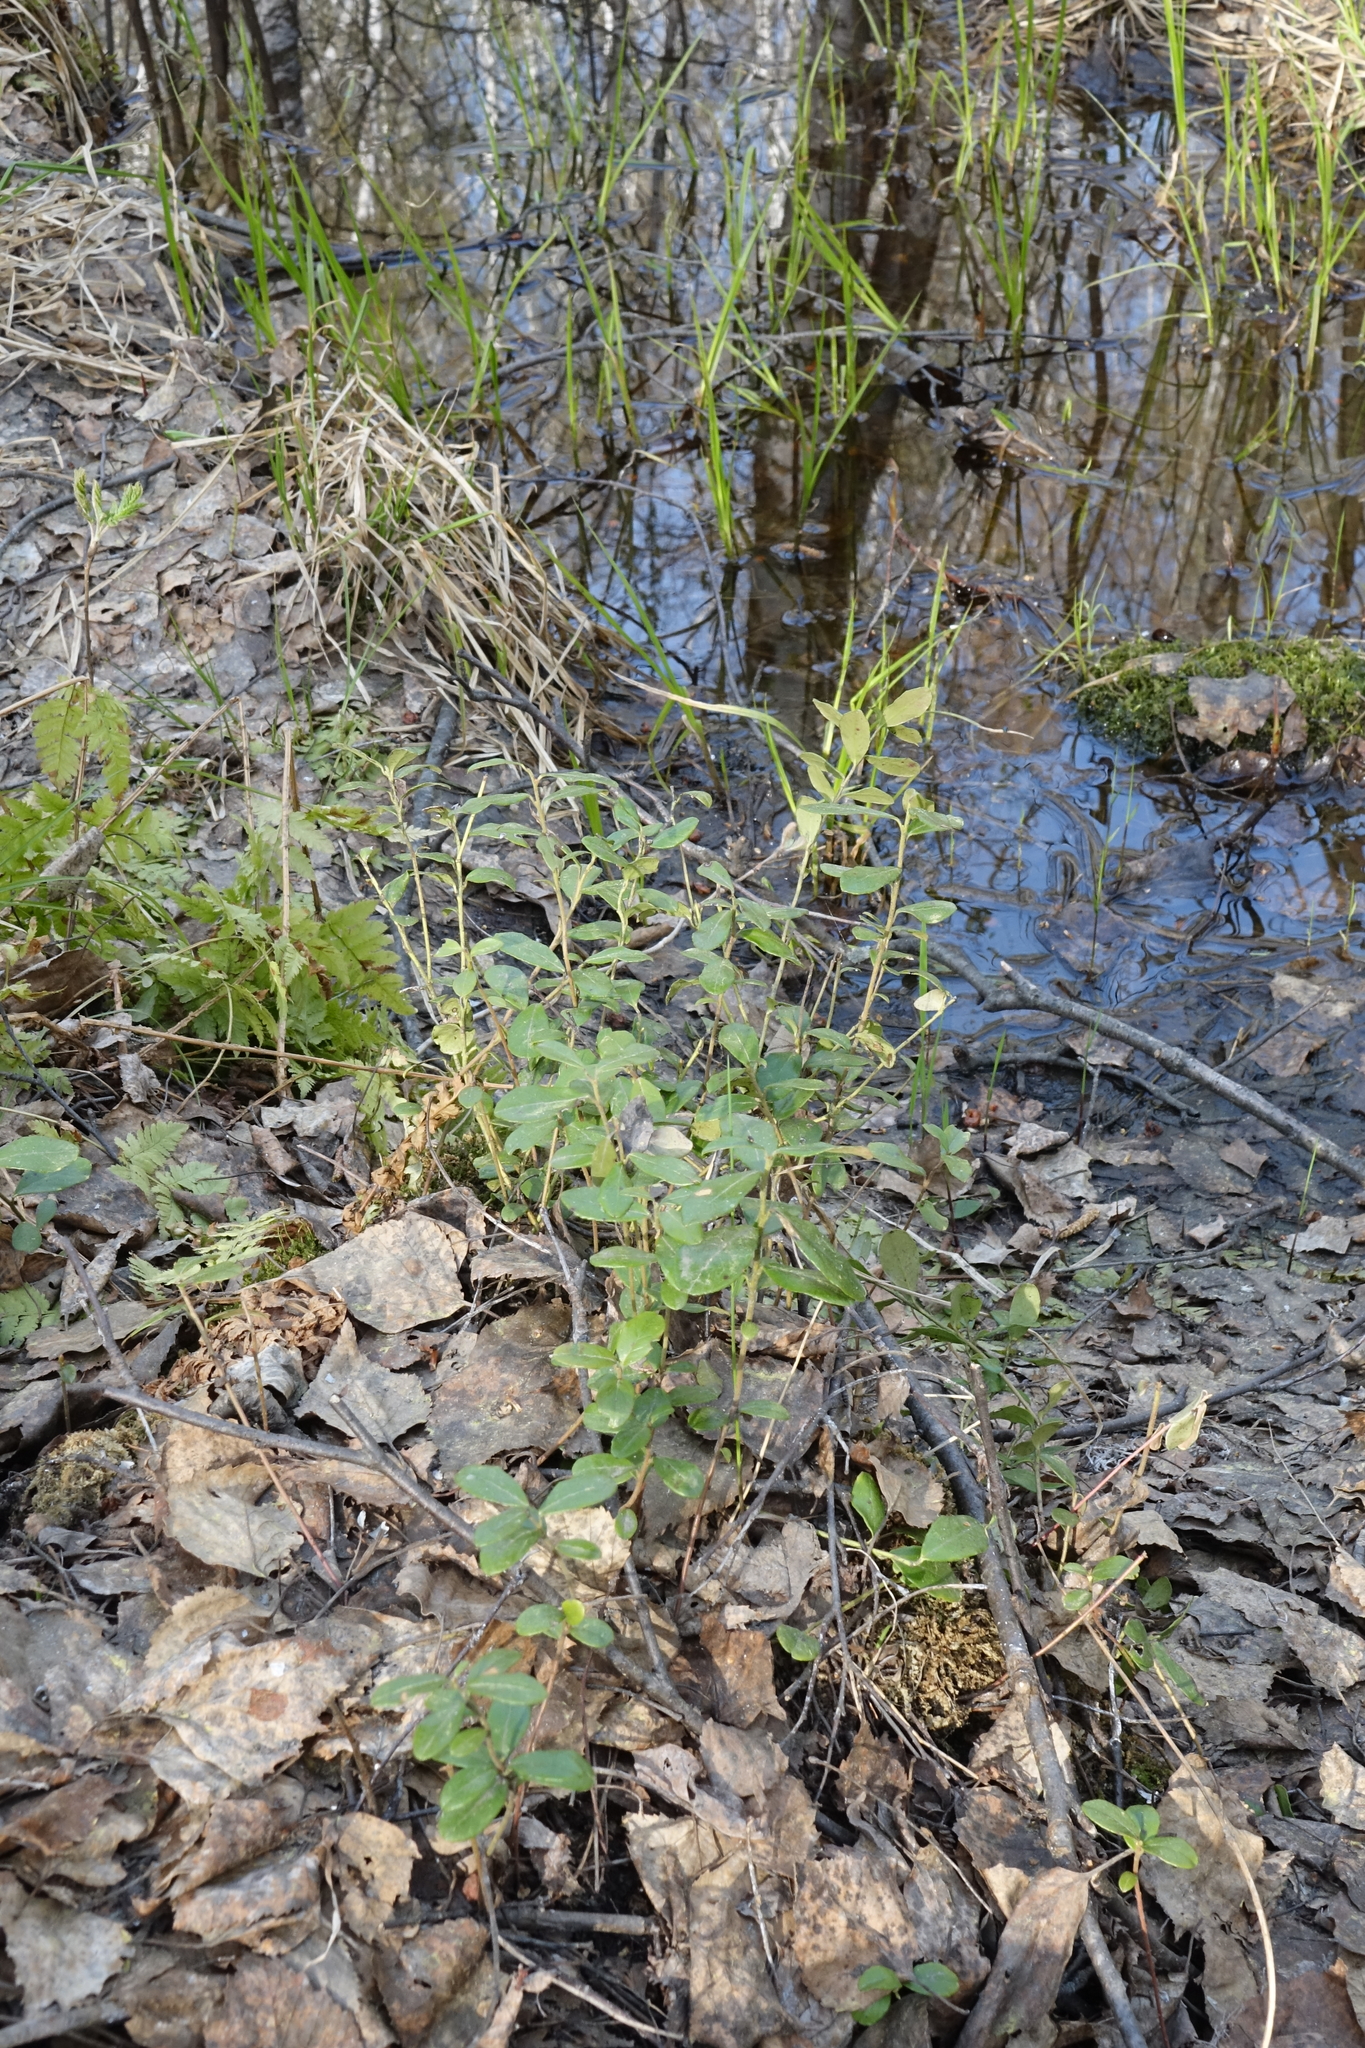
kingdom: Plantae
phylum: Tracheophyta
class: Magnoliopsida
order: Ericales
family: Ericaceae
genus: Vaccinium
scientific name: Vaccinium vitis-idaea
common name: Cowberry
